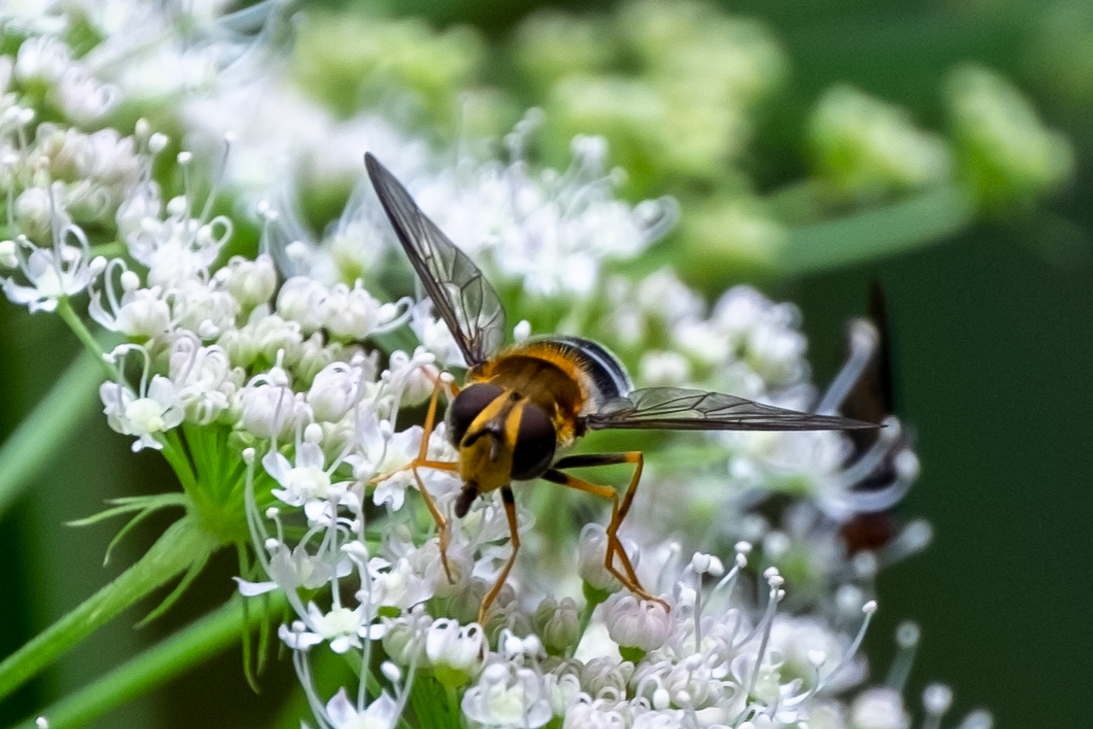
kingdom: Animalia
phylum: Arthropoda
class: Insecta
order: Diptera
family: Syrphidae
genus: Leucozona
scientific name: Leucozona glaucia
